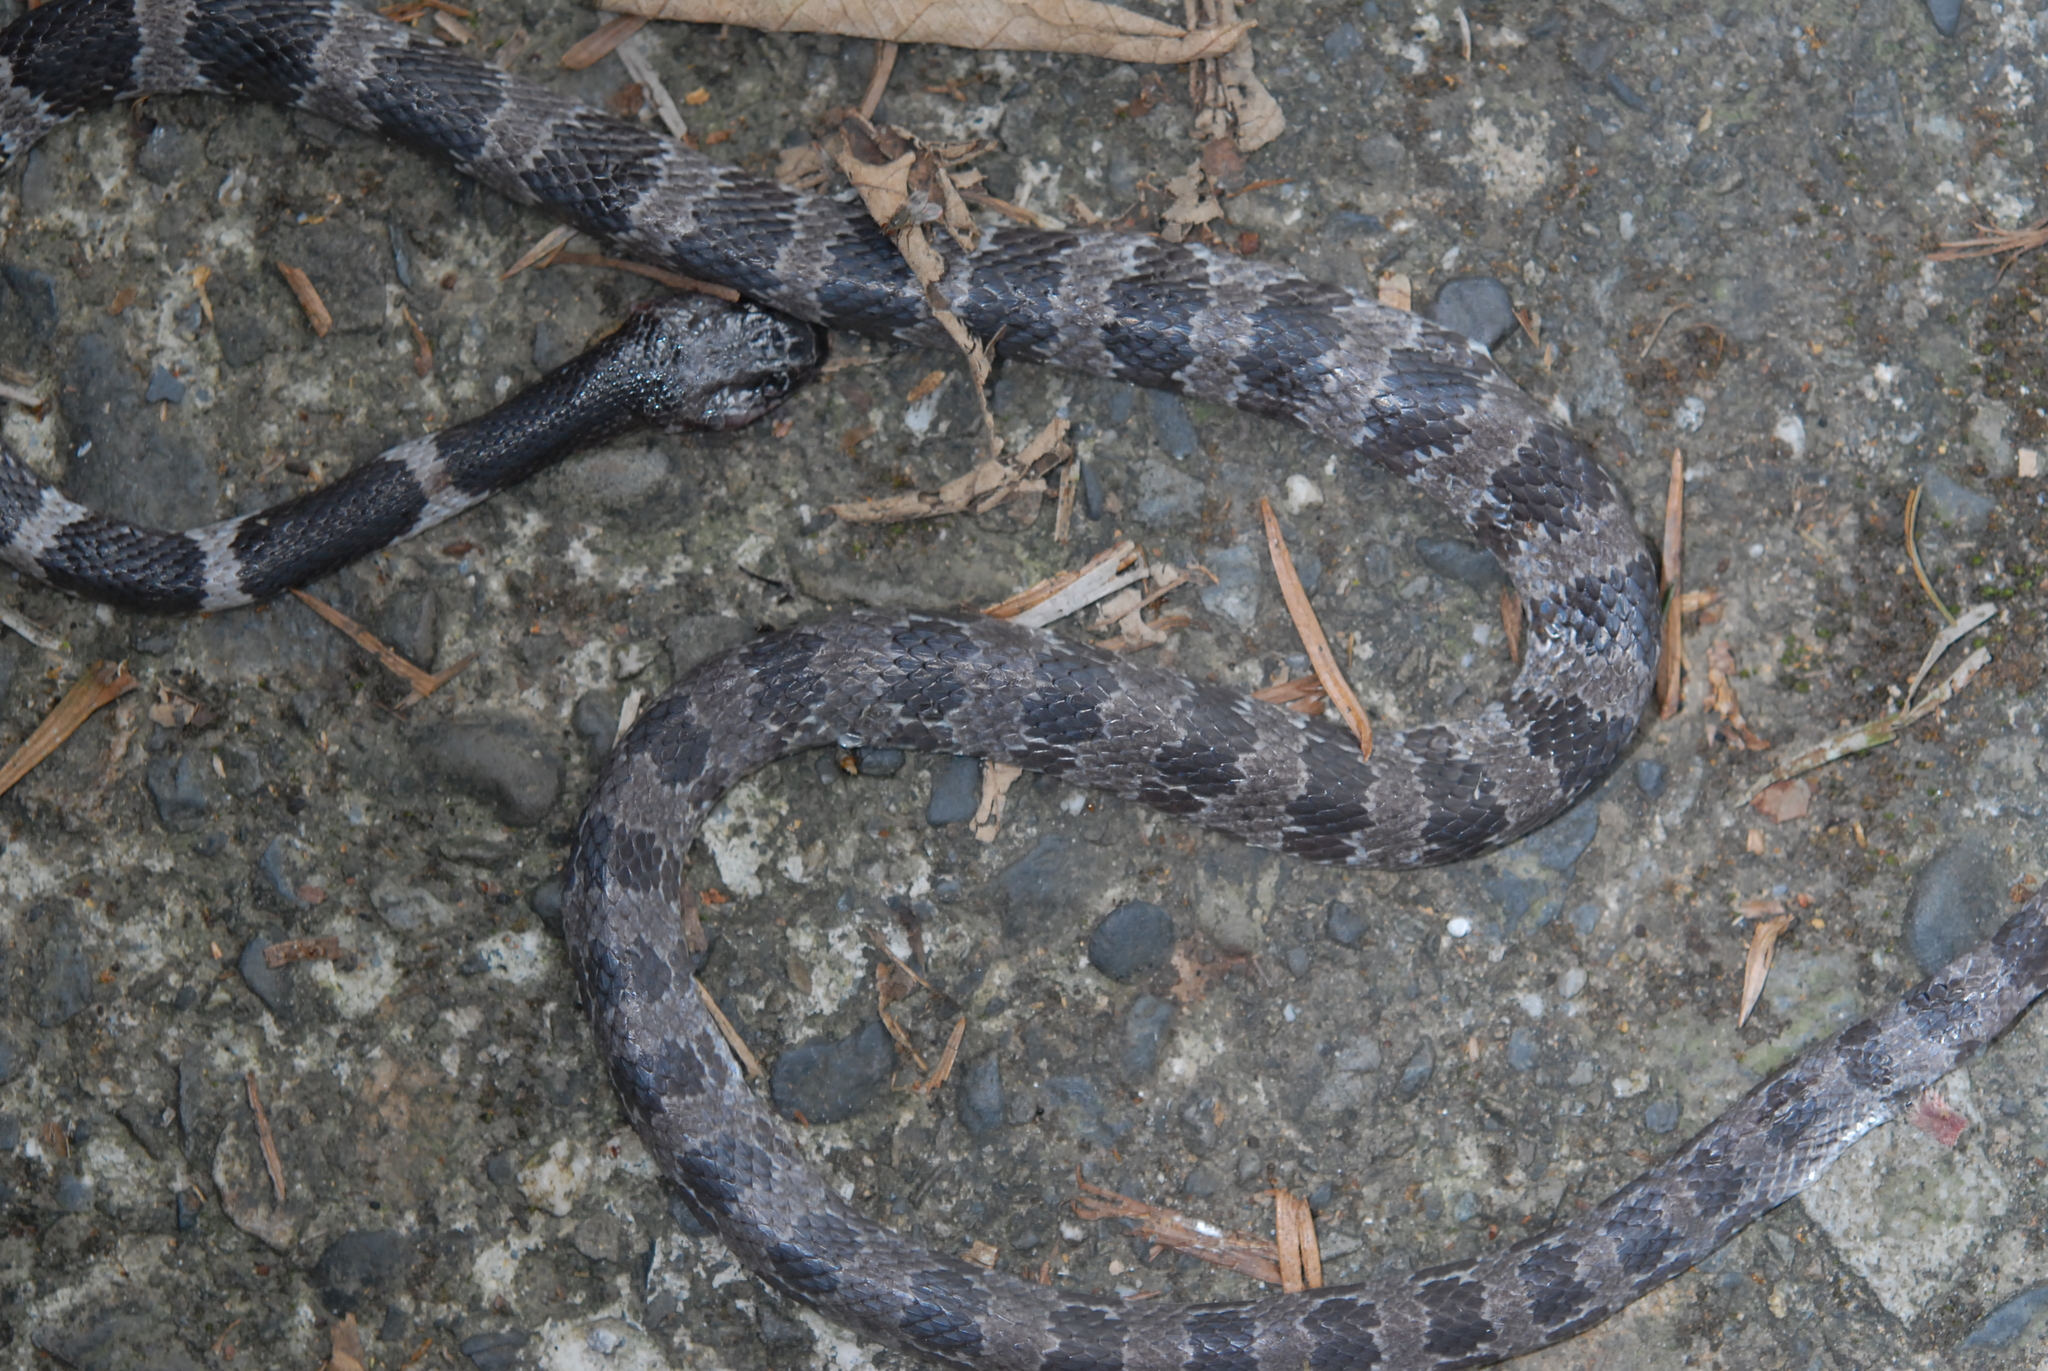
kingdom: Animalia
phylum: Chordata
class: Squamata
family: Colubridae
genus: Lycodon
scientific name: Lycodon ruhstrati
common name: Rushstrat's wolf snake
